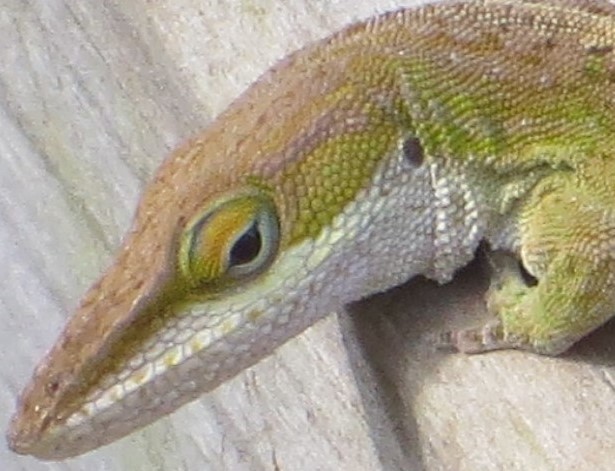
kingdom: Animalia
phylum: Chordata
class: Squamata
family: Dactyloidae
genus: Anolis
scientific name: Anolis carolinensis
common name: Green anole
